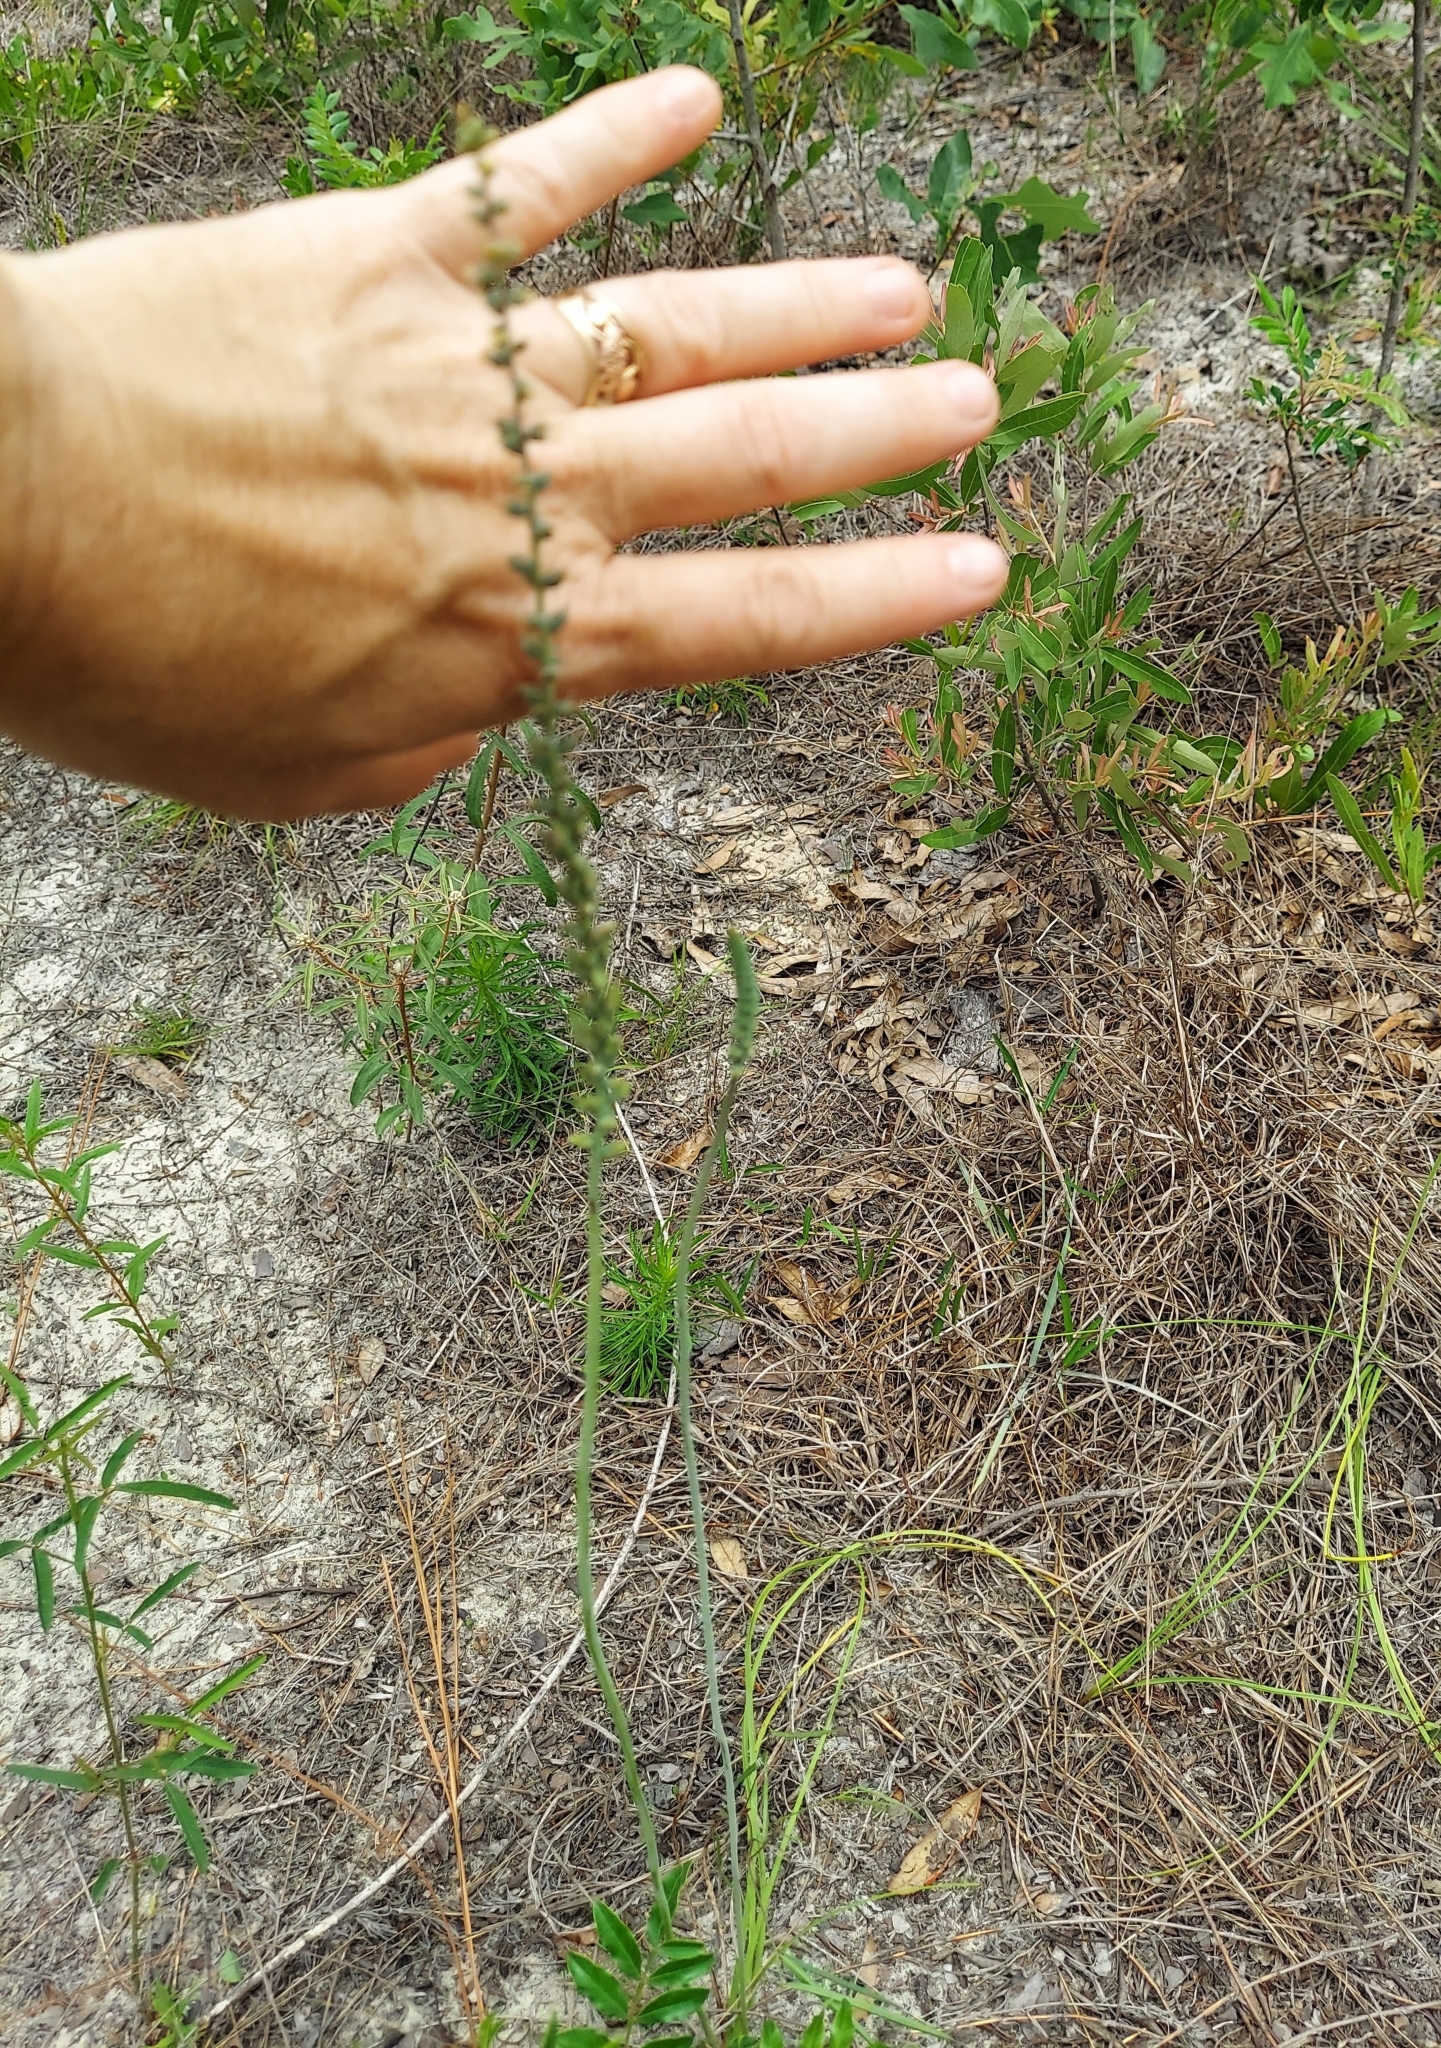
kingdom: Plantae
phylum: Tracheophyta
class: Liliopsida
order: Liliales
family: Melanthiaceae
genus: Schoenocaulon
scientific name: Schoenocaulon dubium
